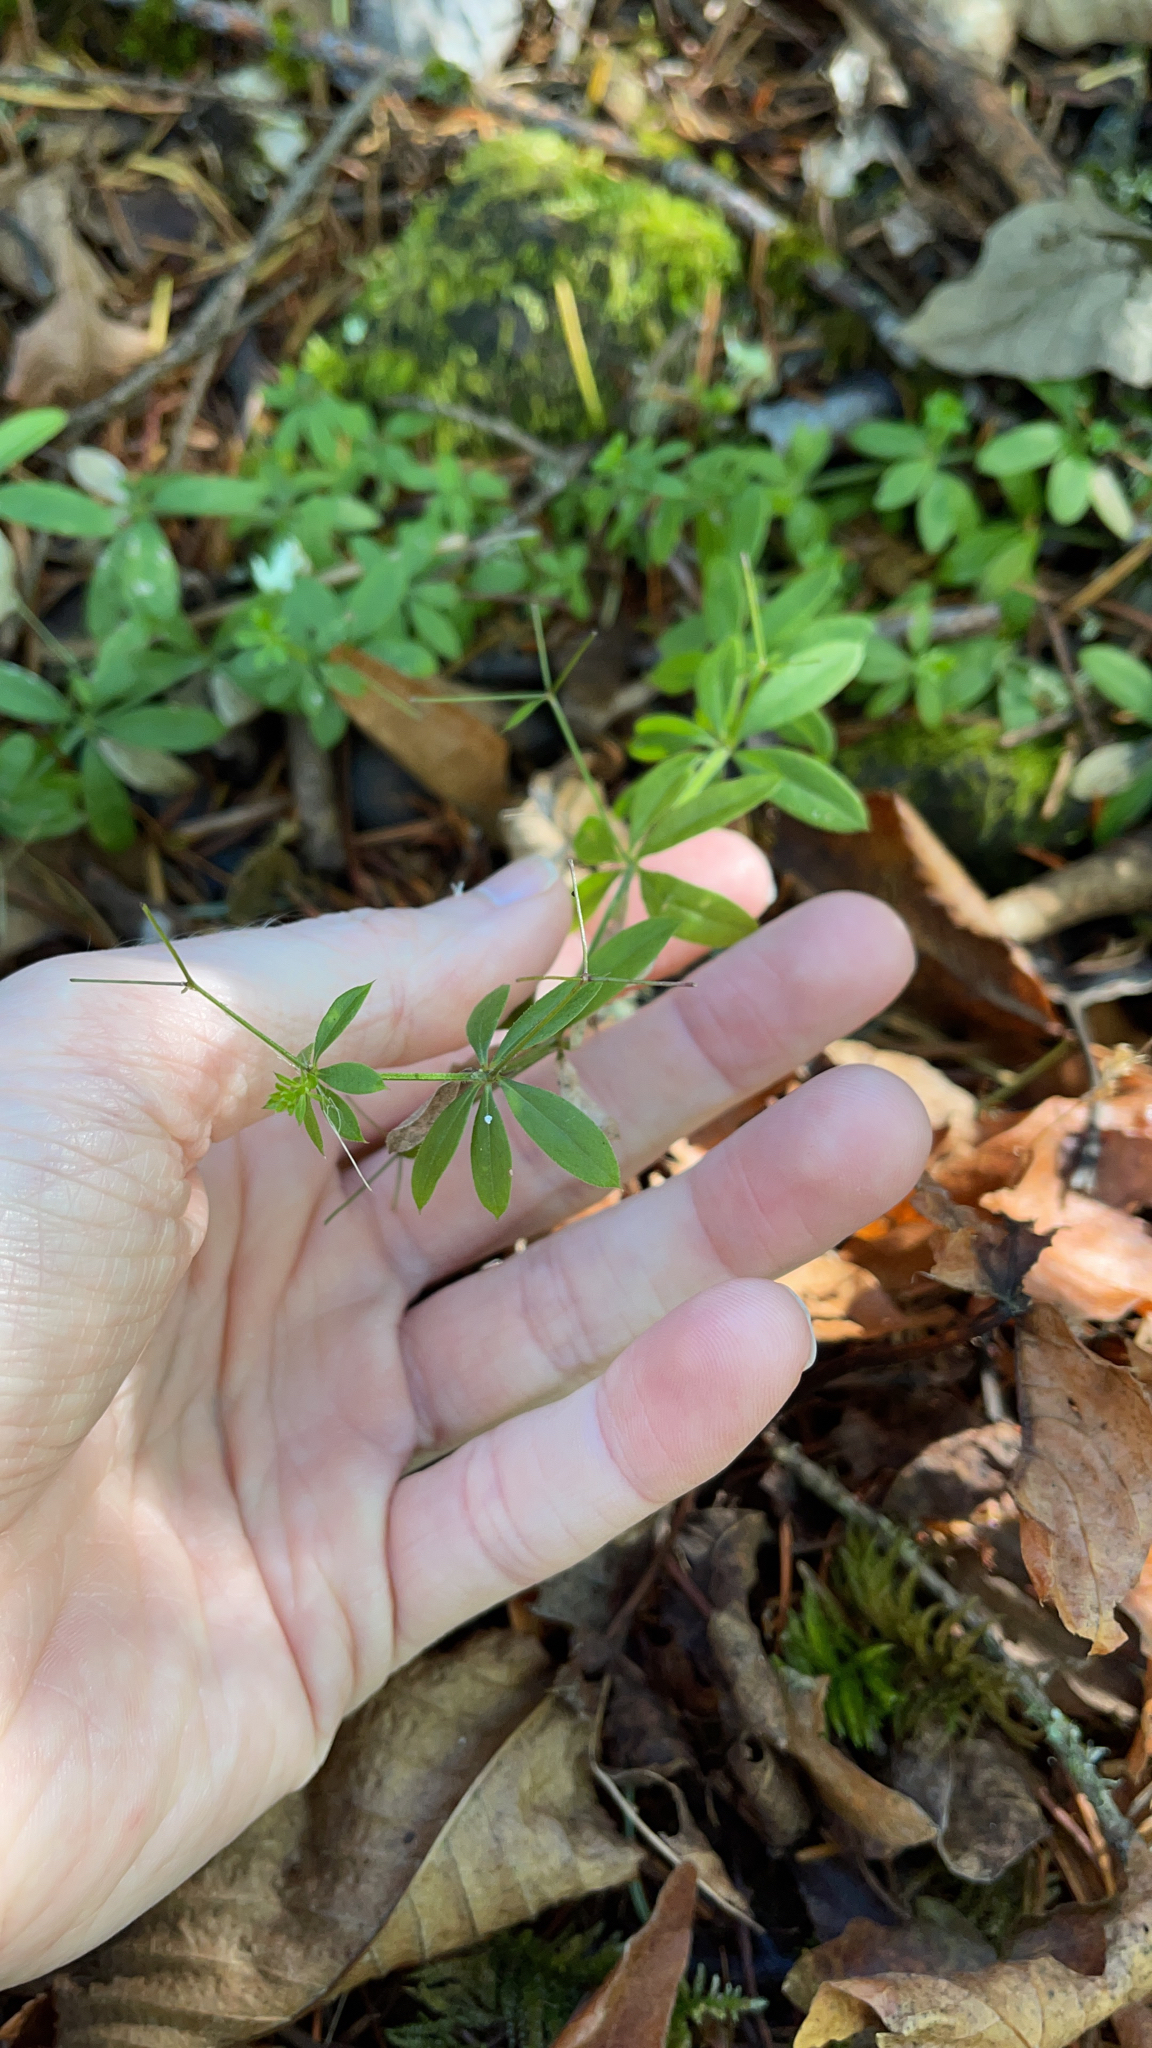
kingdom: Plantae
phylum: Tracheophyta
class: Magnoliopsida
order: Gentianales
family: Rubiaceae
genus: Galium
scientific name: Galium triflorum
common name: Fragrant bedstraw
